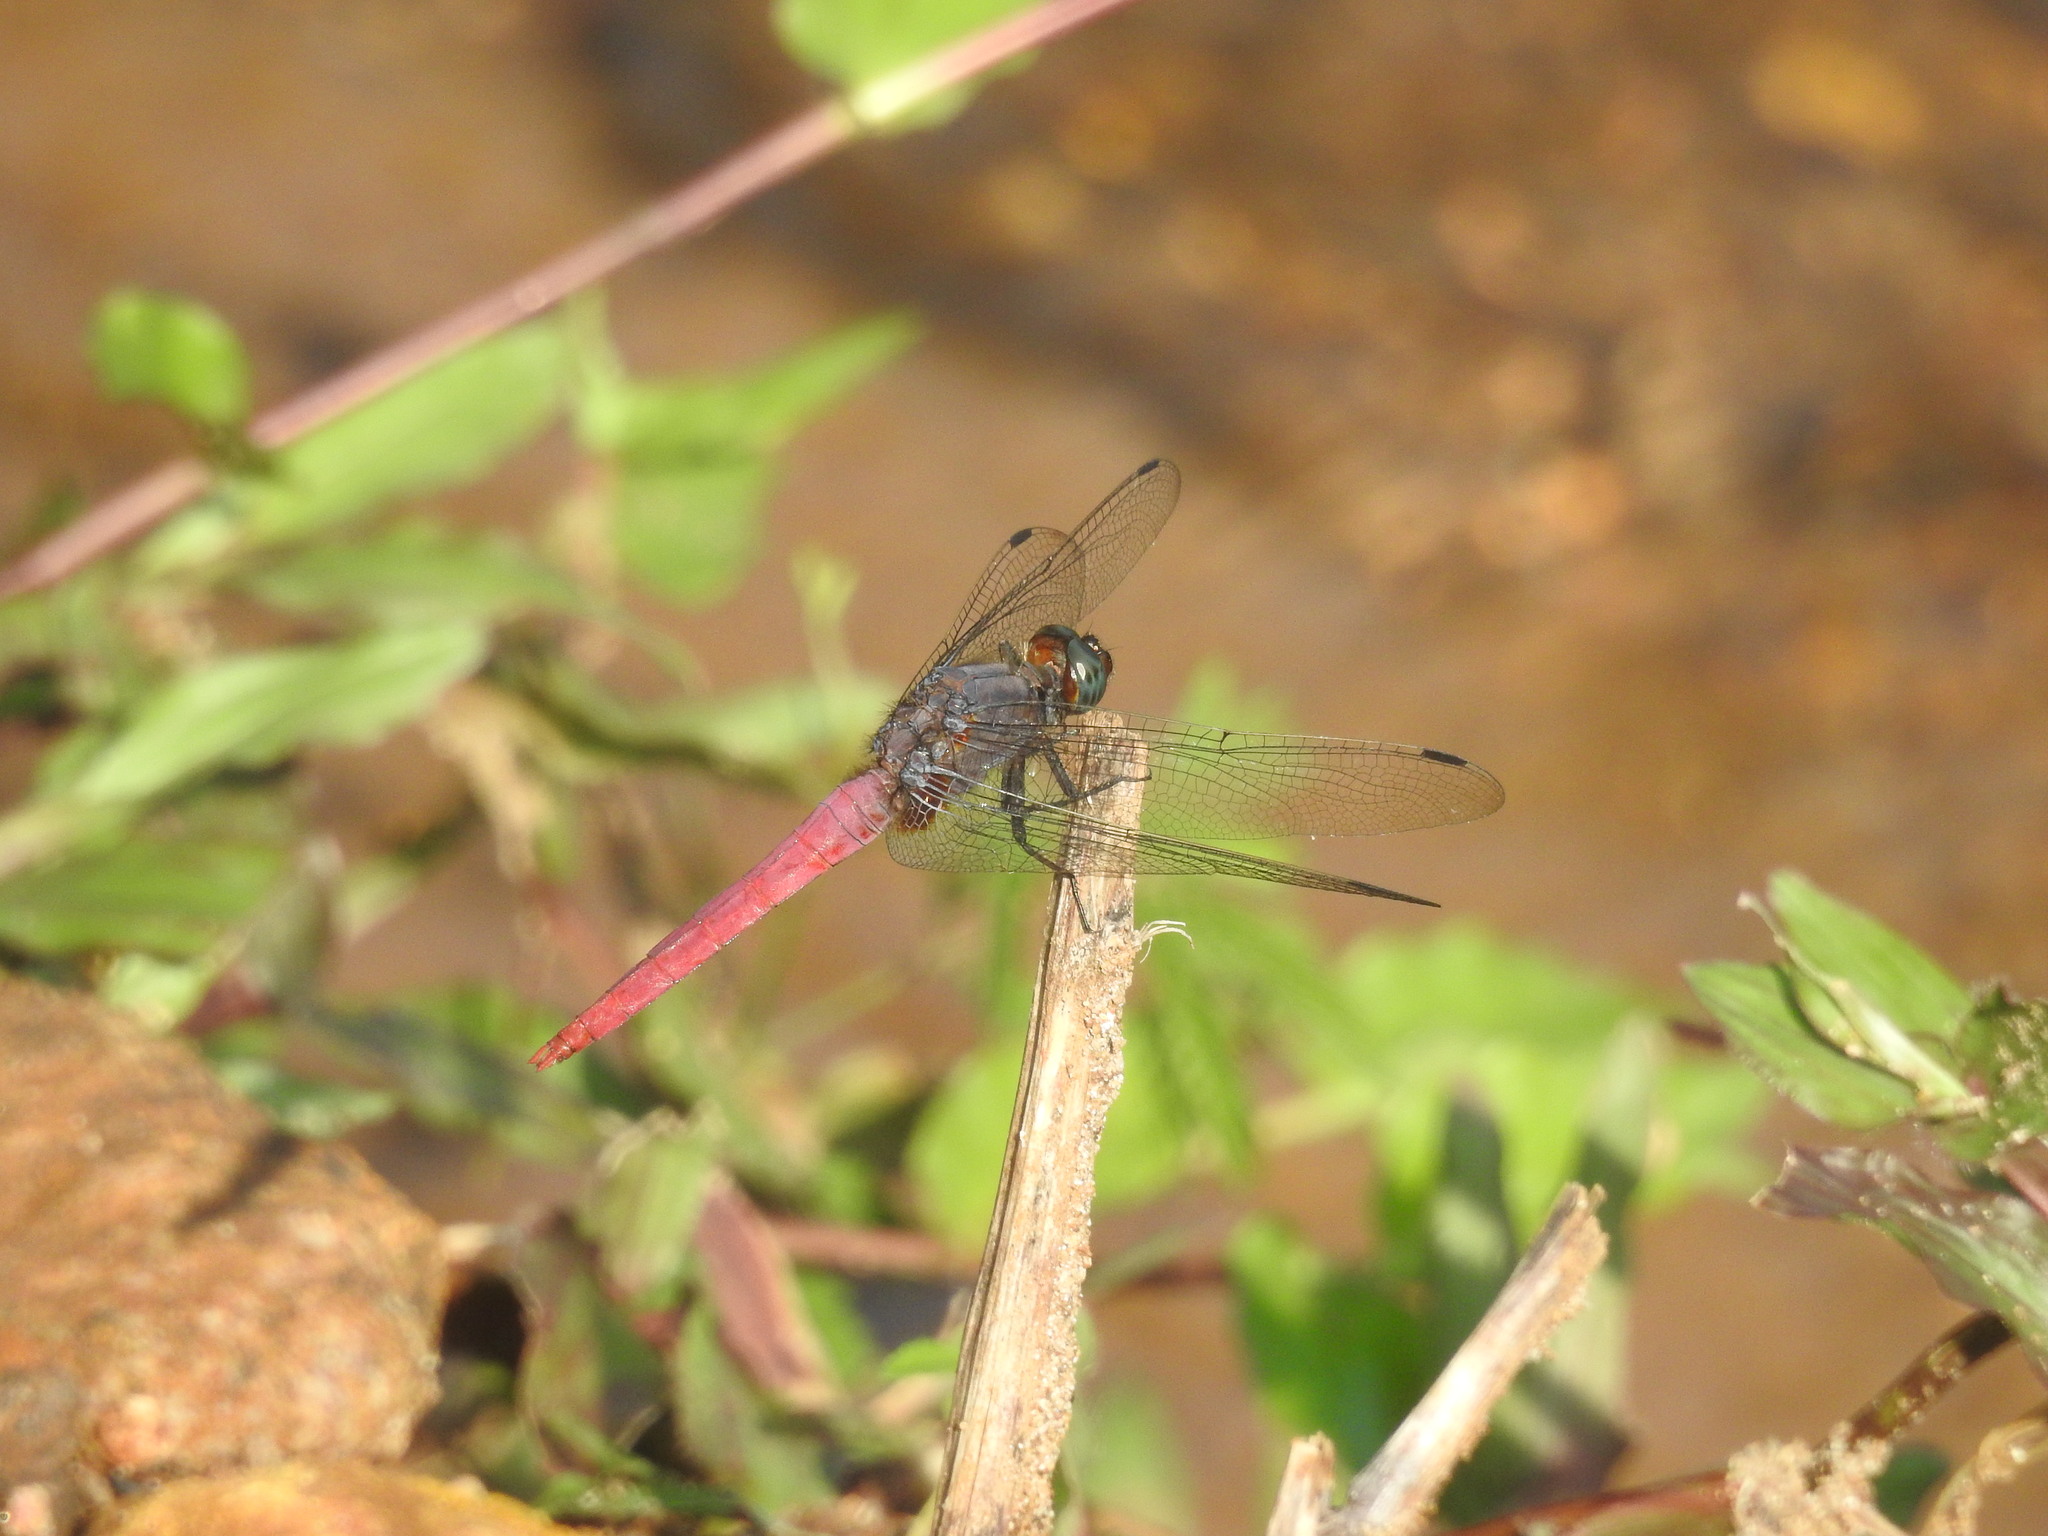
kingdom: Animalia
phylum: Arthropoda
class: Insecta
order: Odonata
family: Libellulidae
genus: Orthetrum
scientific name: Orthetrum pruinosum
